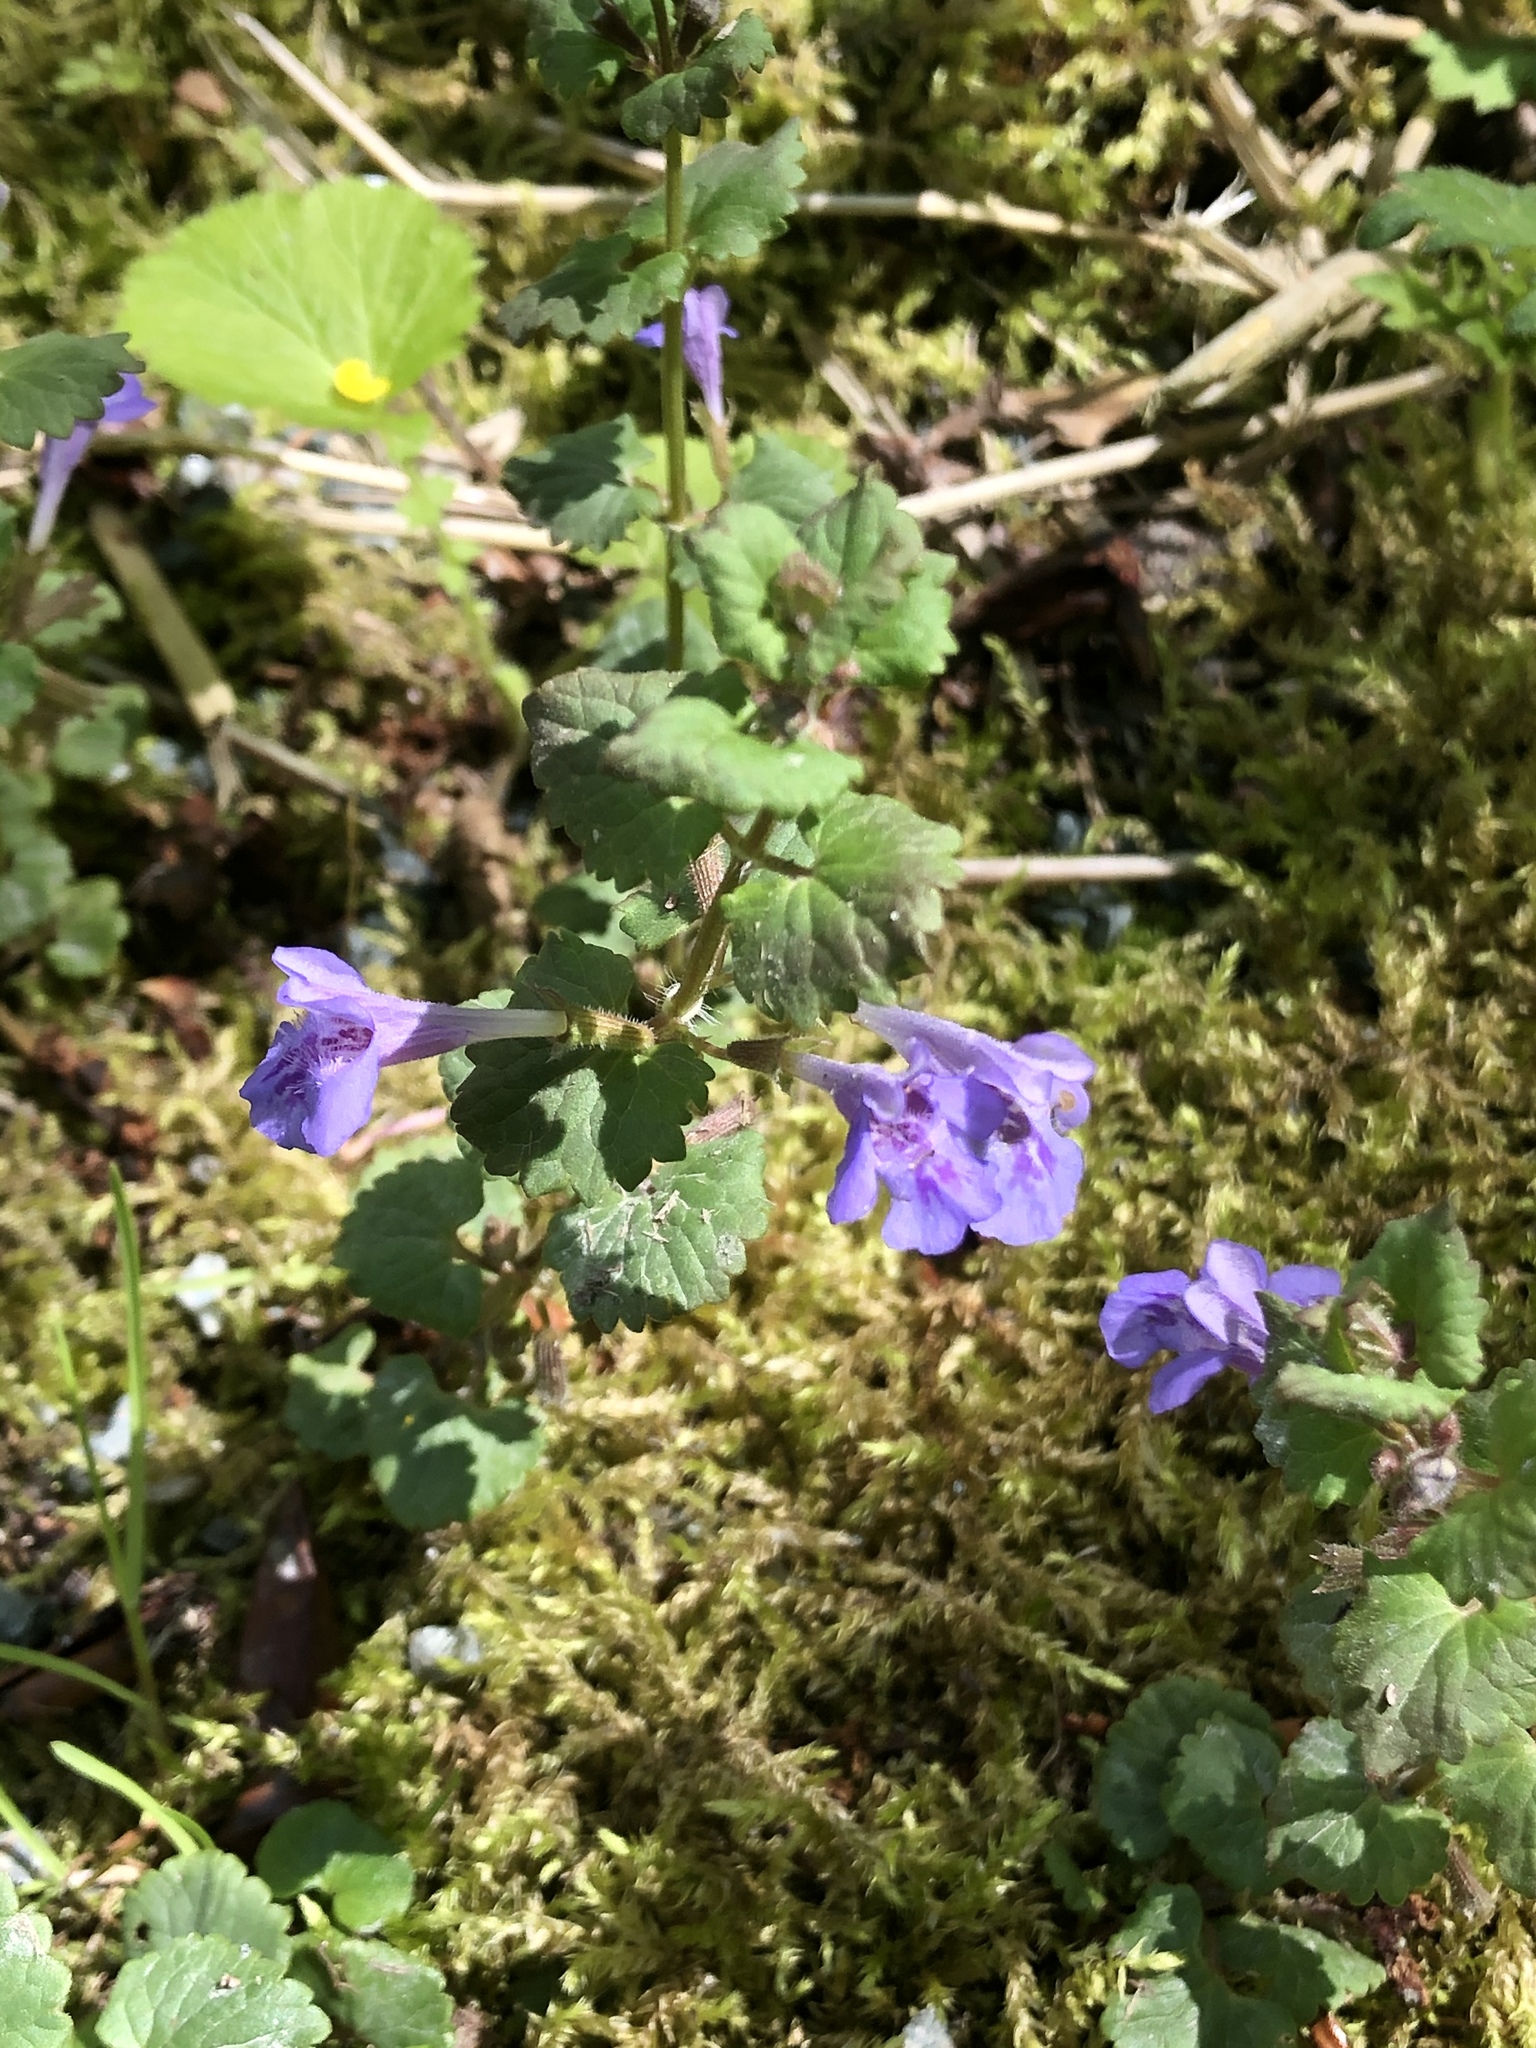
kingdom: Plantae
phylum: Tracheophyta
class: Magnoliopsida
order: Lamiales
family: Lamiaceae
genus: Glechoma
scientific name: Glechoma hederacea
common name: Ground ivy
